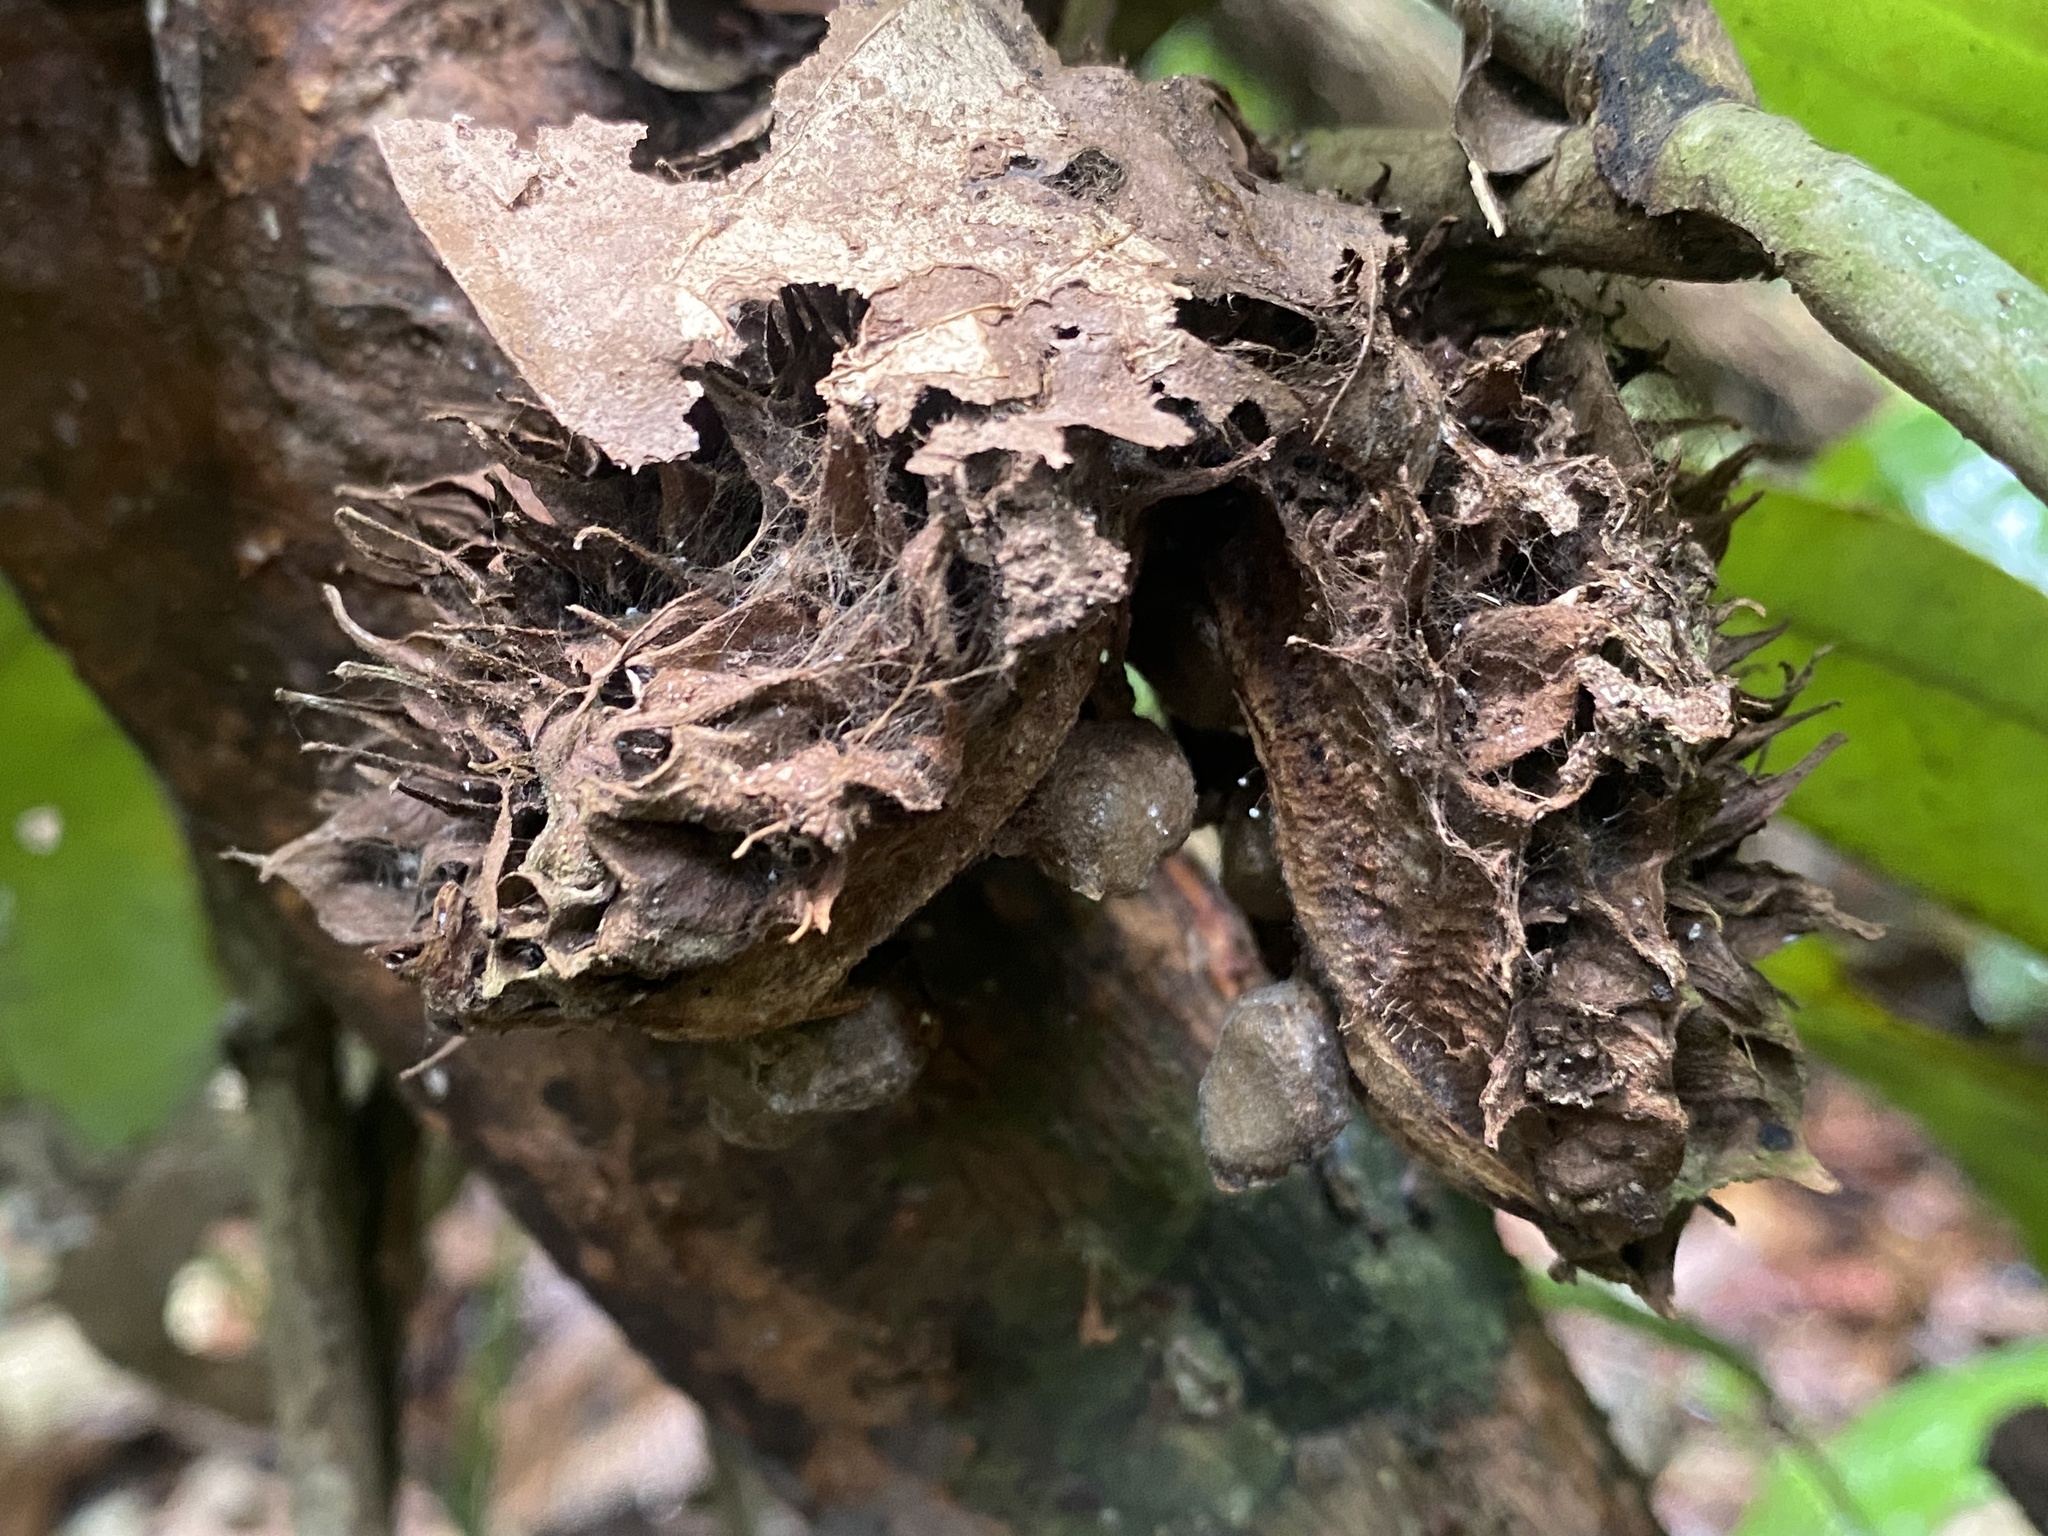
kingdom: Plantae
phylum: Tracheophyta
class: Magnoliopsida
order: Malpighiales
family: Achariaceae
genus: Carpotroche
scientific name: Carpotroche longifolia
